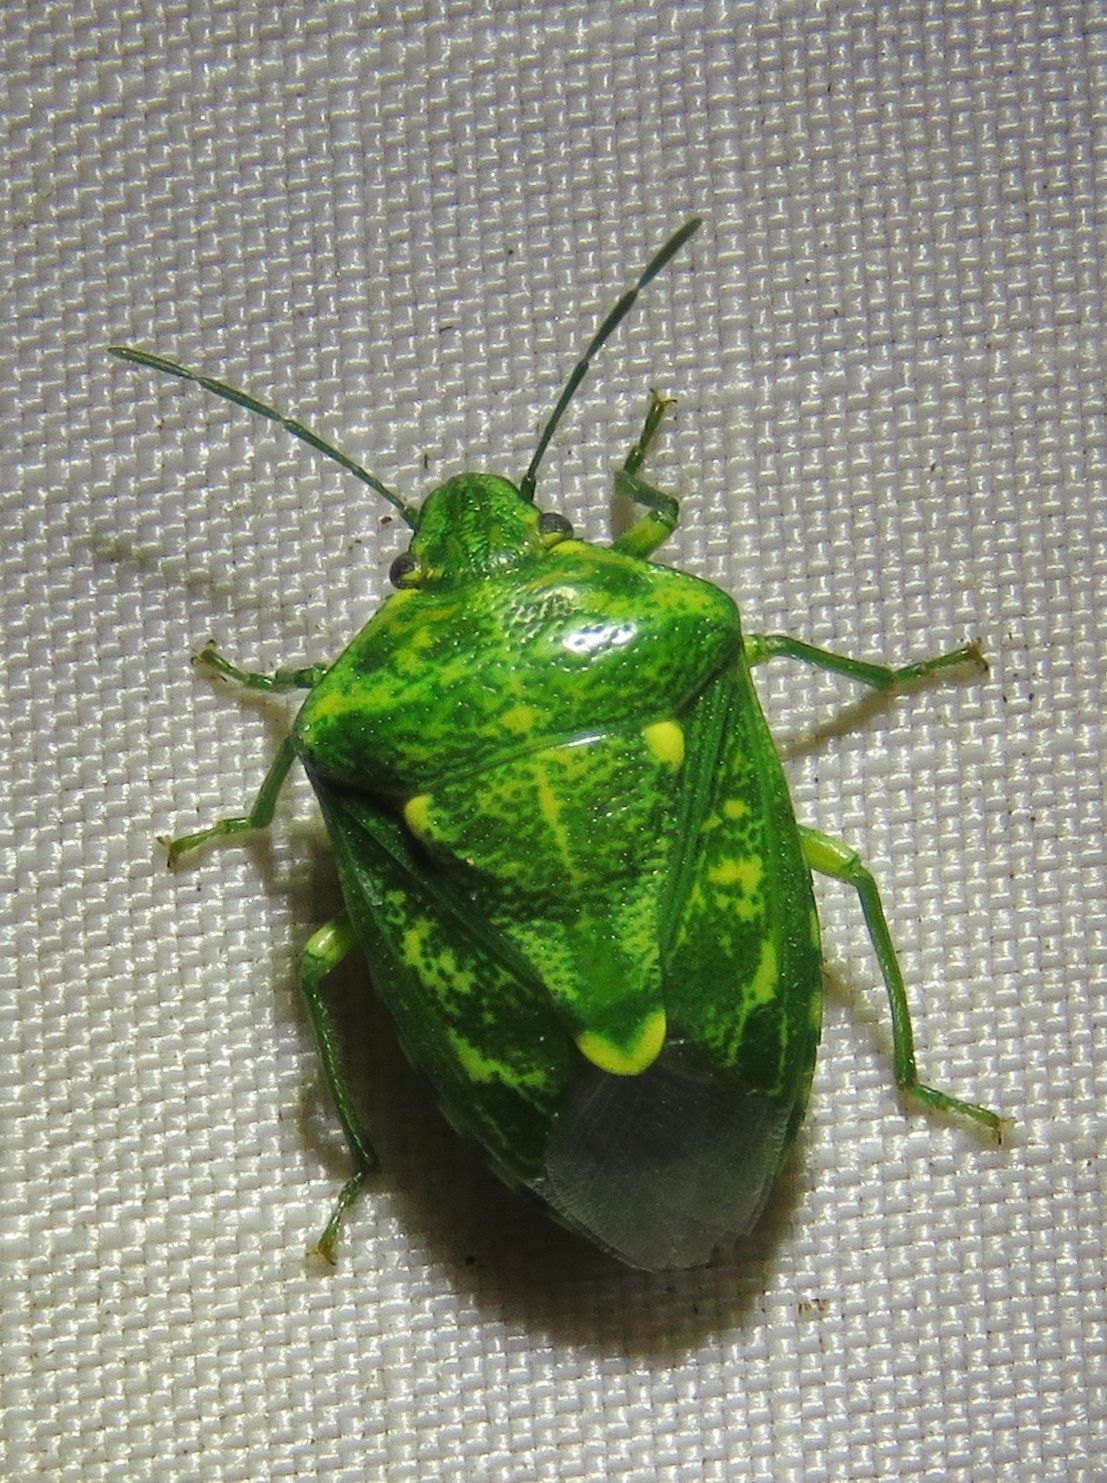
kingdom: Animalia
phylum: Arthropoda
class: Insecta
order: Hemiptera
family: Pentatomidae
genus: Banasa
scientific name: Banasa euchlora
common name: Cedar berry bug
